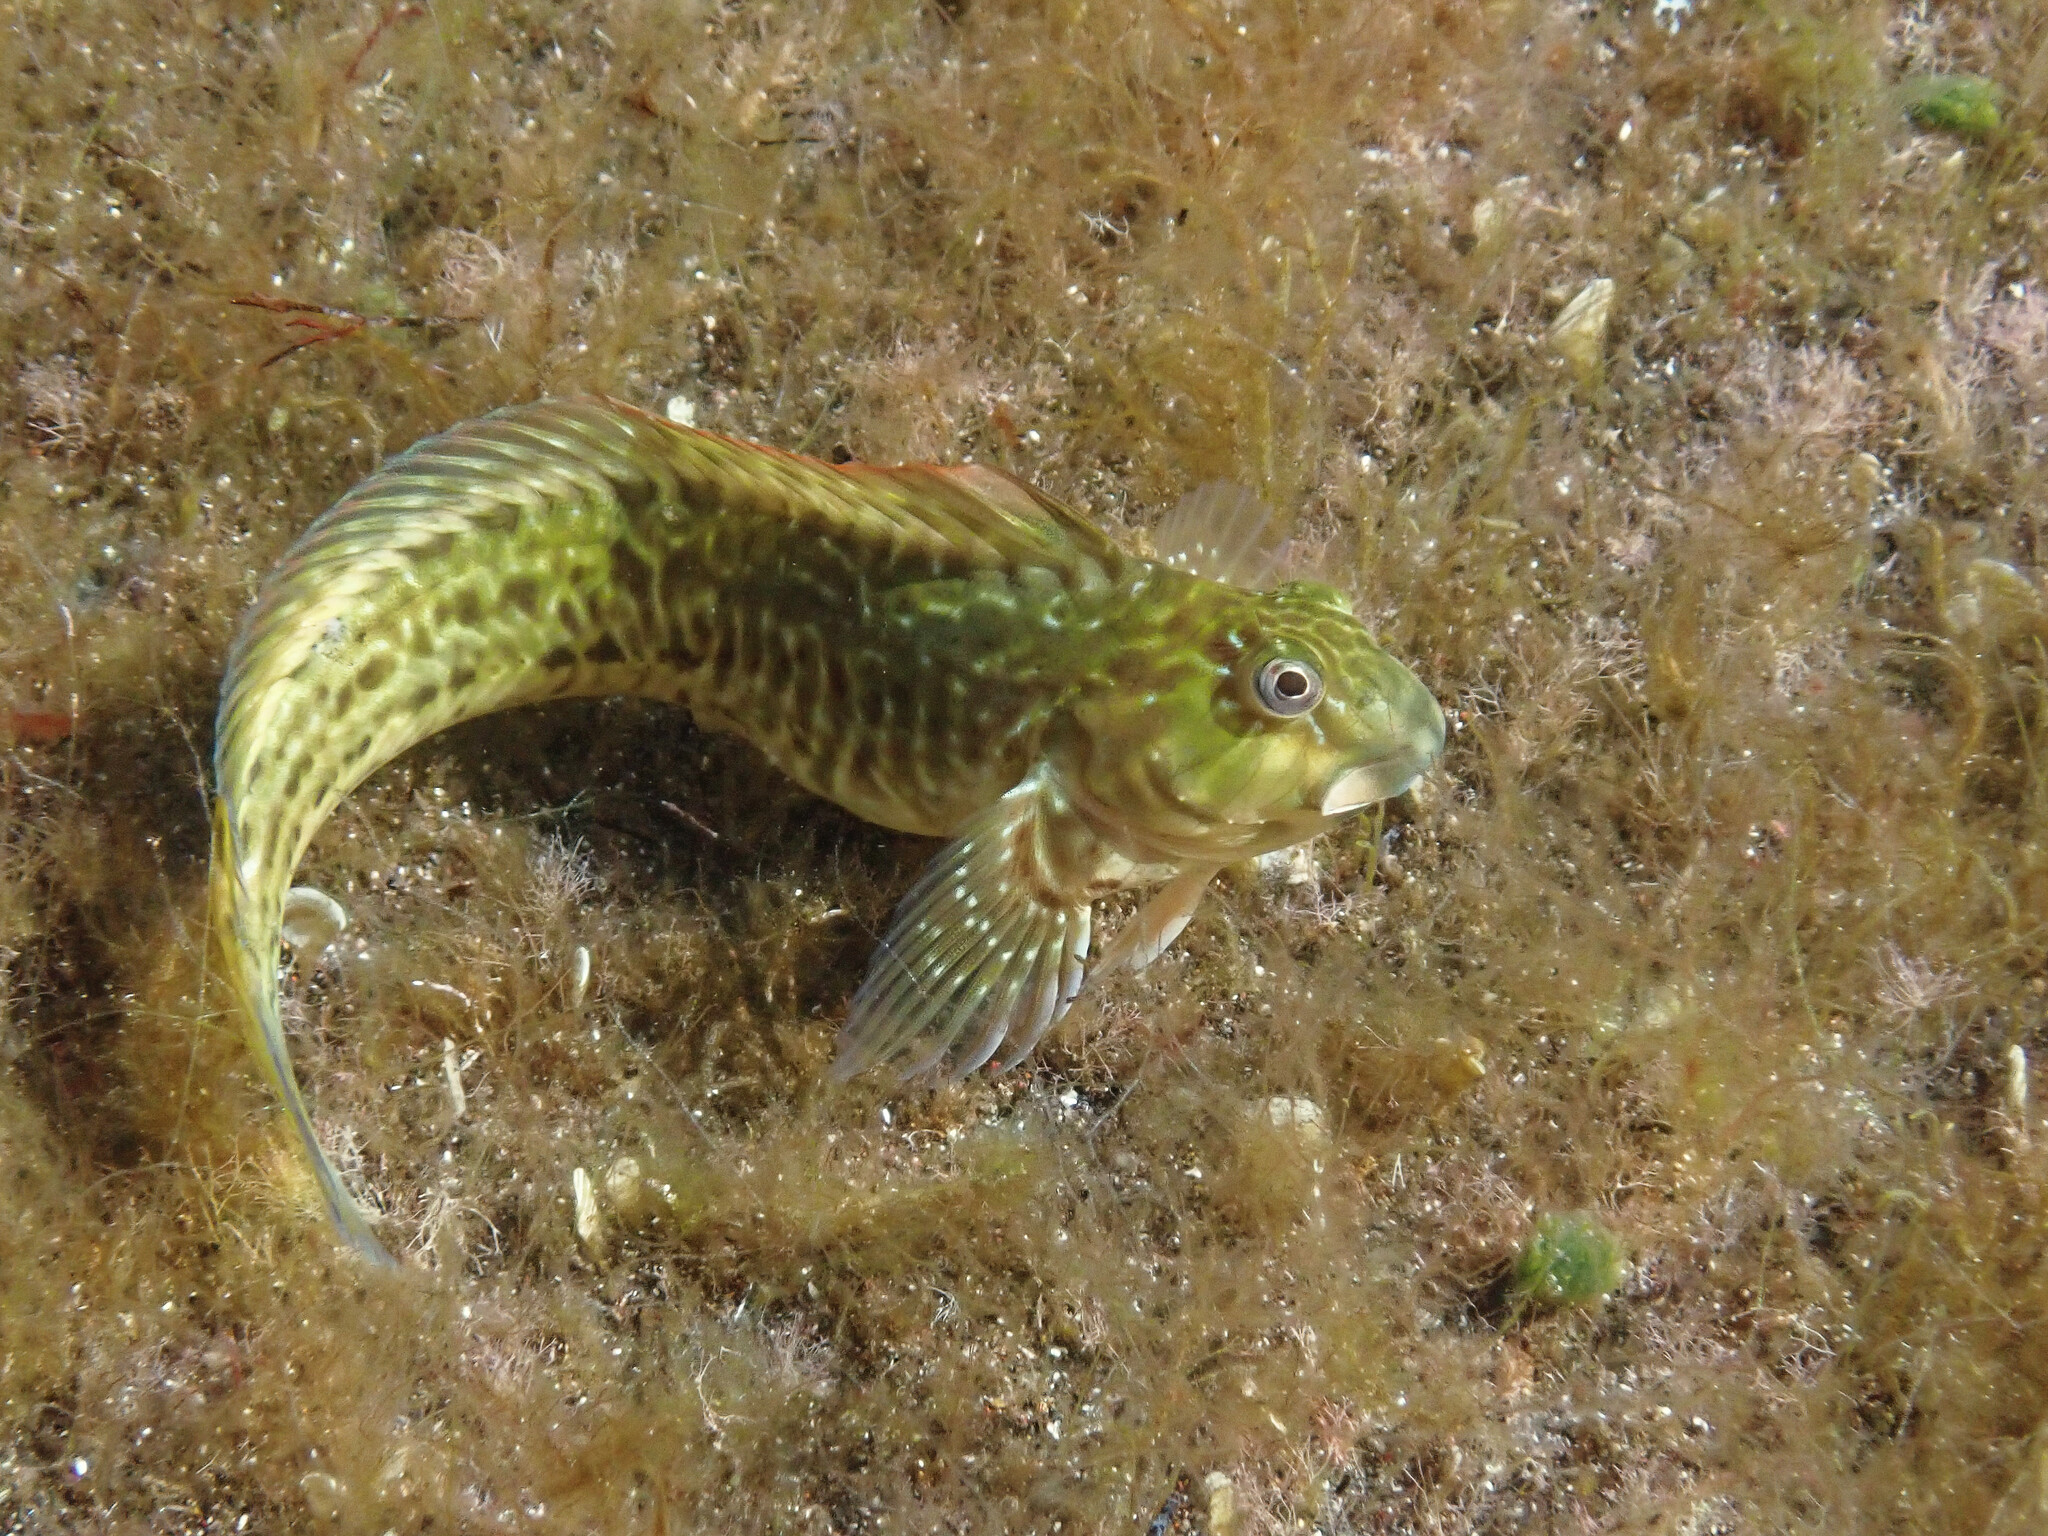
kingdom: Animalia
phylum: Chordata
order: Perciformes
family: Blenniidae
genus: Parablennius
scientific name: Parablennius parvicornis
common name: Rock-pool blenny
